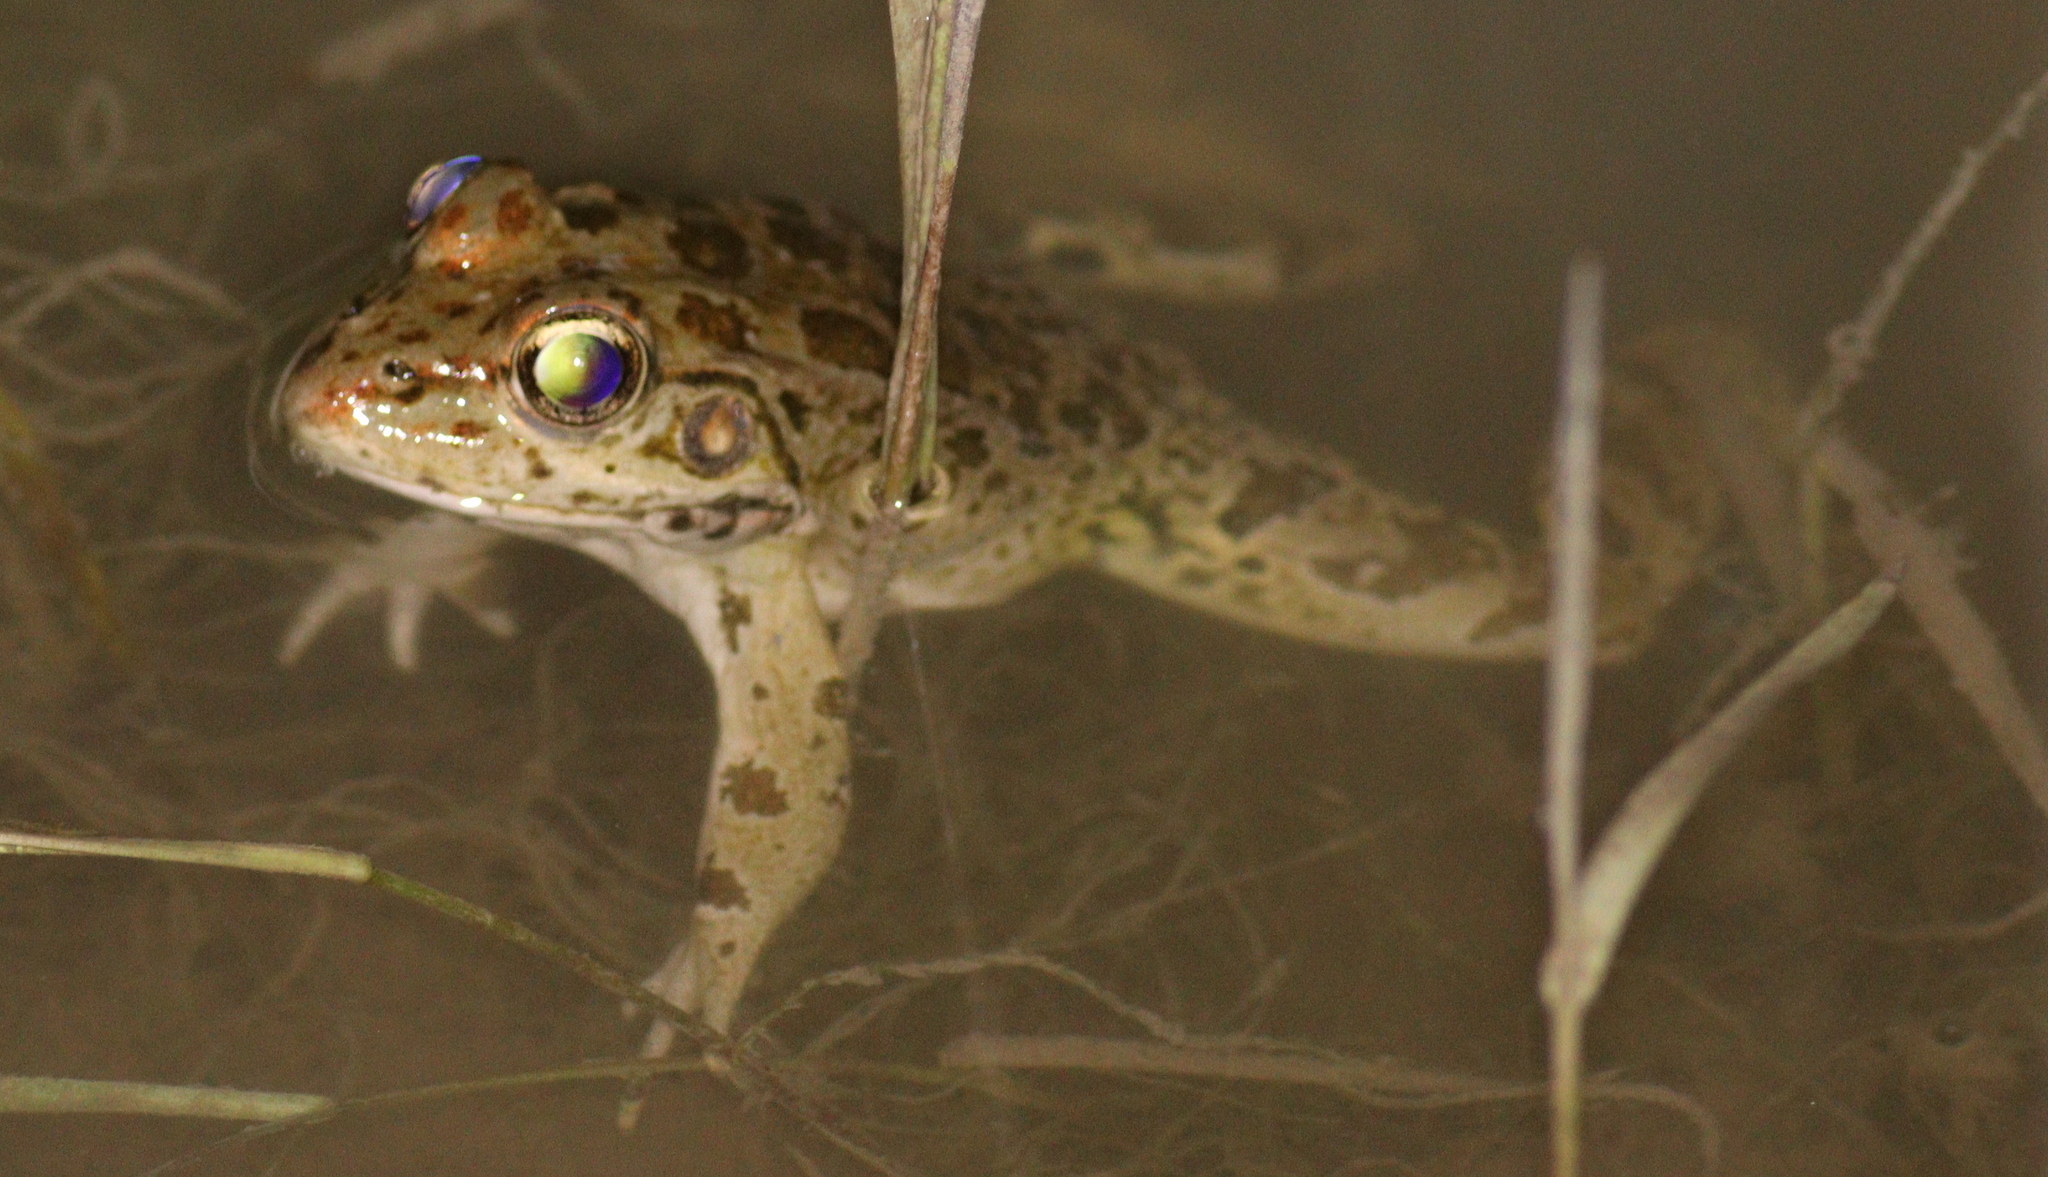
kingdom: Animalia
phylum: Chordata
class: Amphibia
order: Anura
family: Ranidae
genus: Pelophylax
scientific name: Pelophylax ridibundus
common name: Marsh frog
